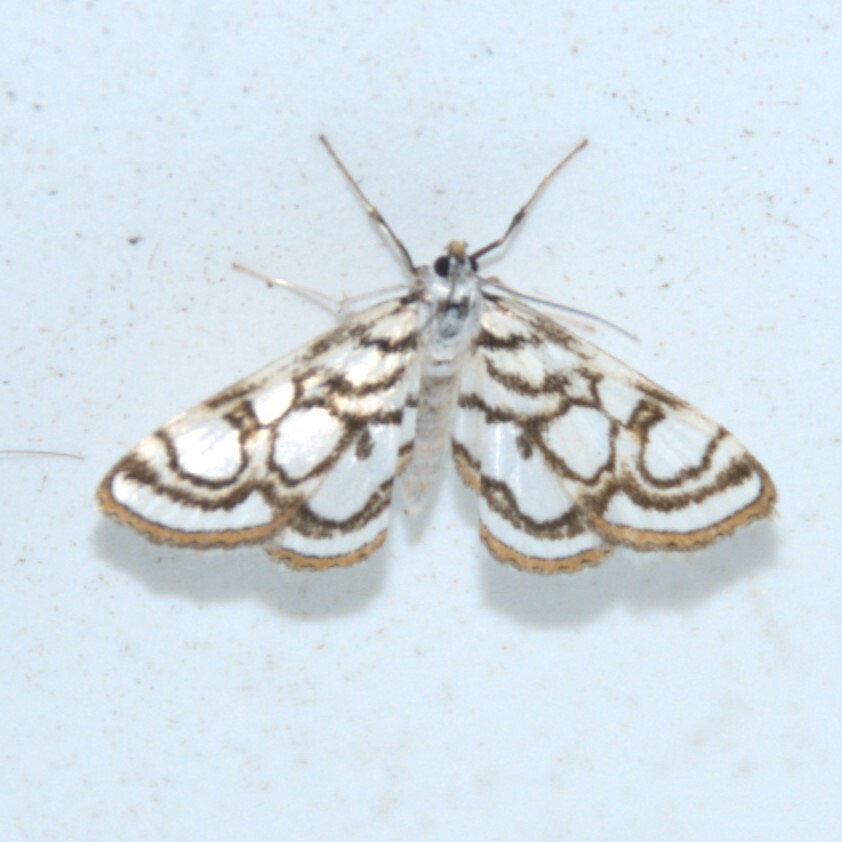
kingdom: Animalia
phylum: Arthropoda
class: Insecta
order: Lepidoptera
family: Crambidae
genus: Nymphula
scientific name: Nymphula nitidulata
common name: Beautiful china mark
